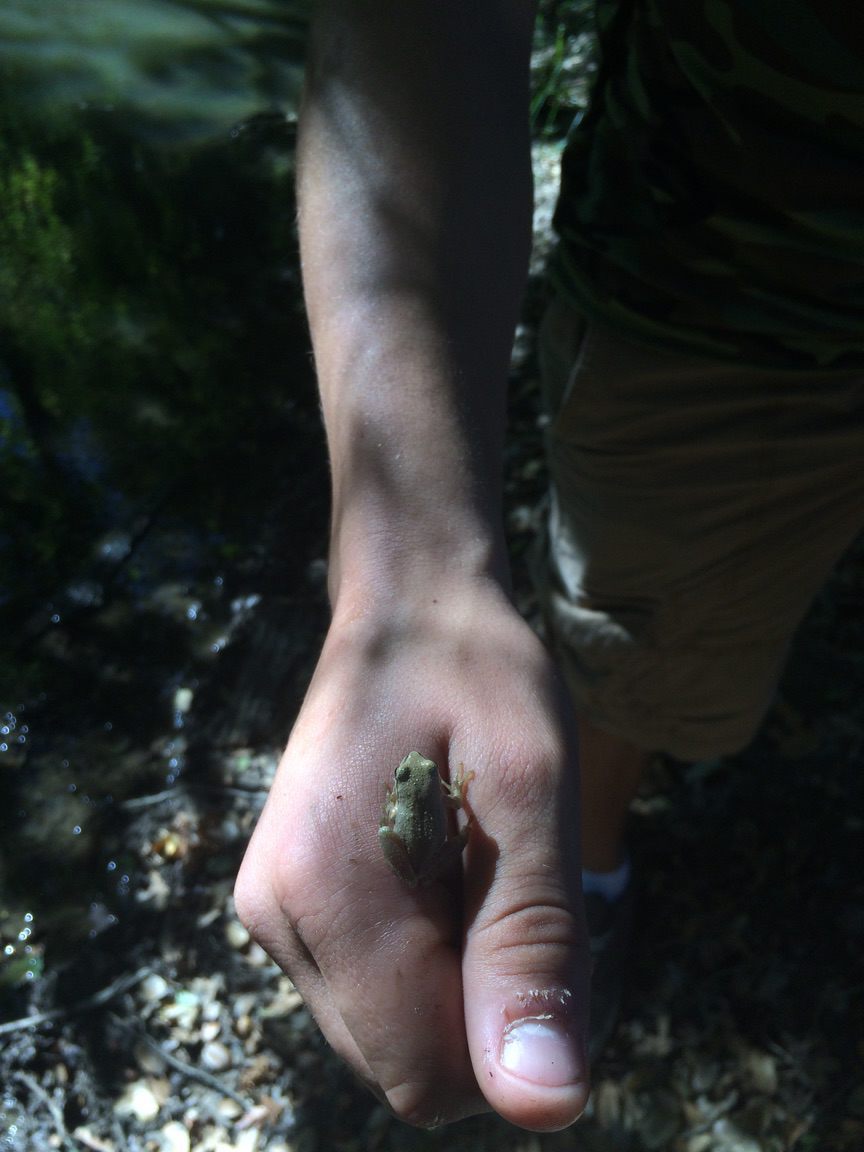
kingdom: Animalia
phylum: Chordata
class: Amphibia
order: Anura
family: Hylidae
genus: Pseudacris
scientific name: Pseudacris regilla
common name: Pacific chorus frog
